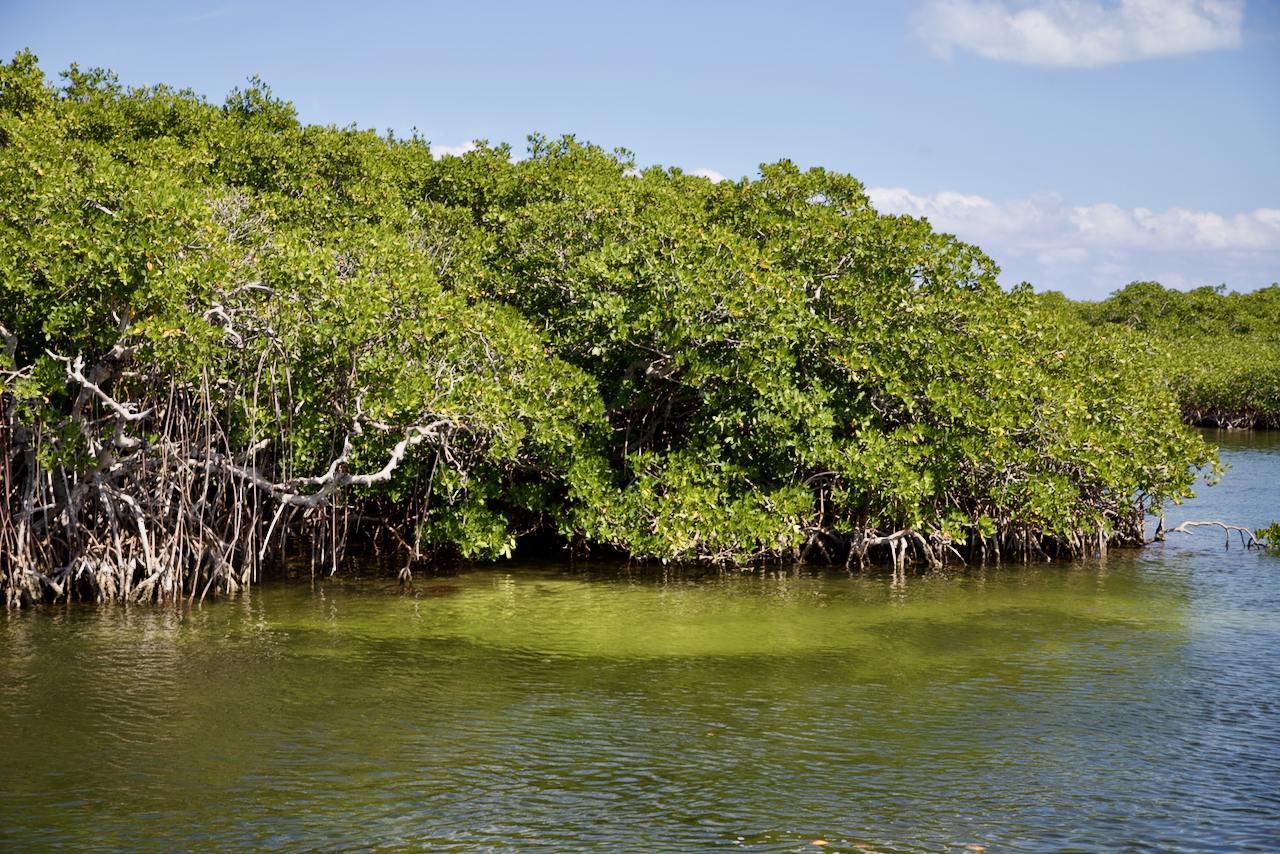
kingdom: Plantae
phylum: Tracheophyta
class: Magnoliopsida
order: Malpighiales
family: Rhizophoraceae
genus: Rhizophora
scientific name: Rhizophora mangle
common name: Red mangrove
